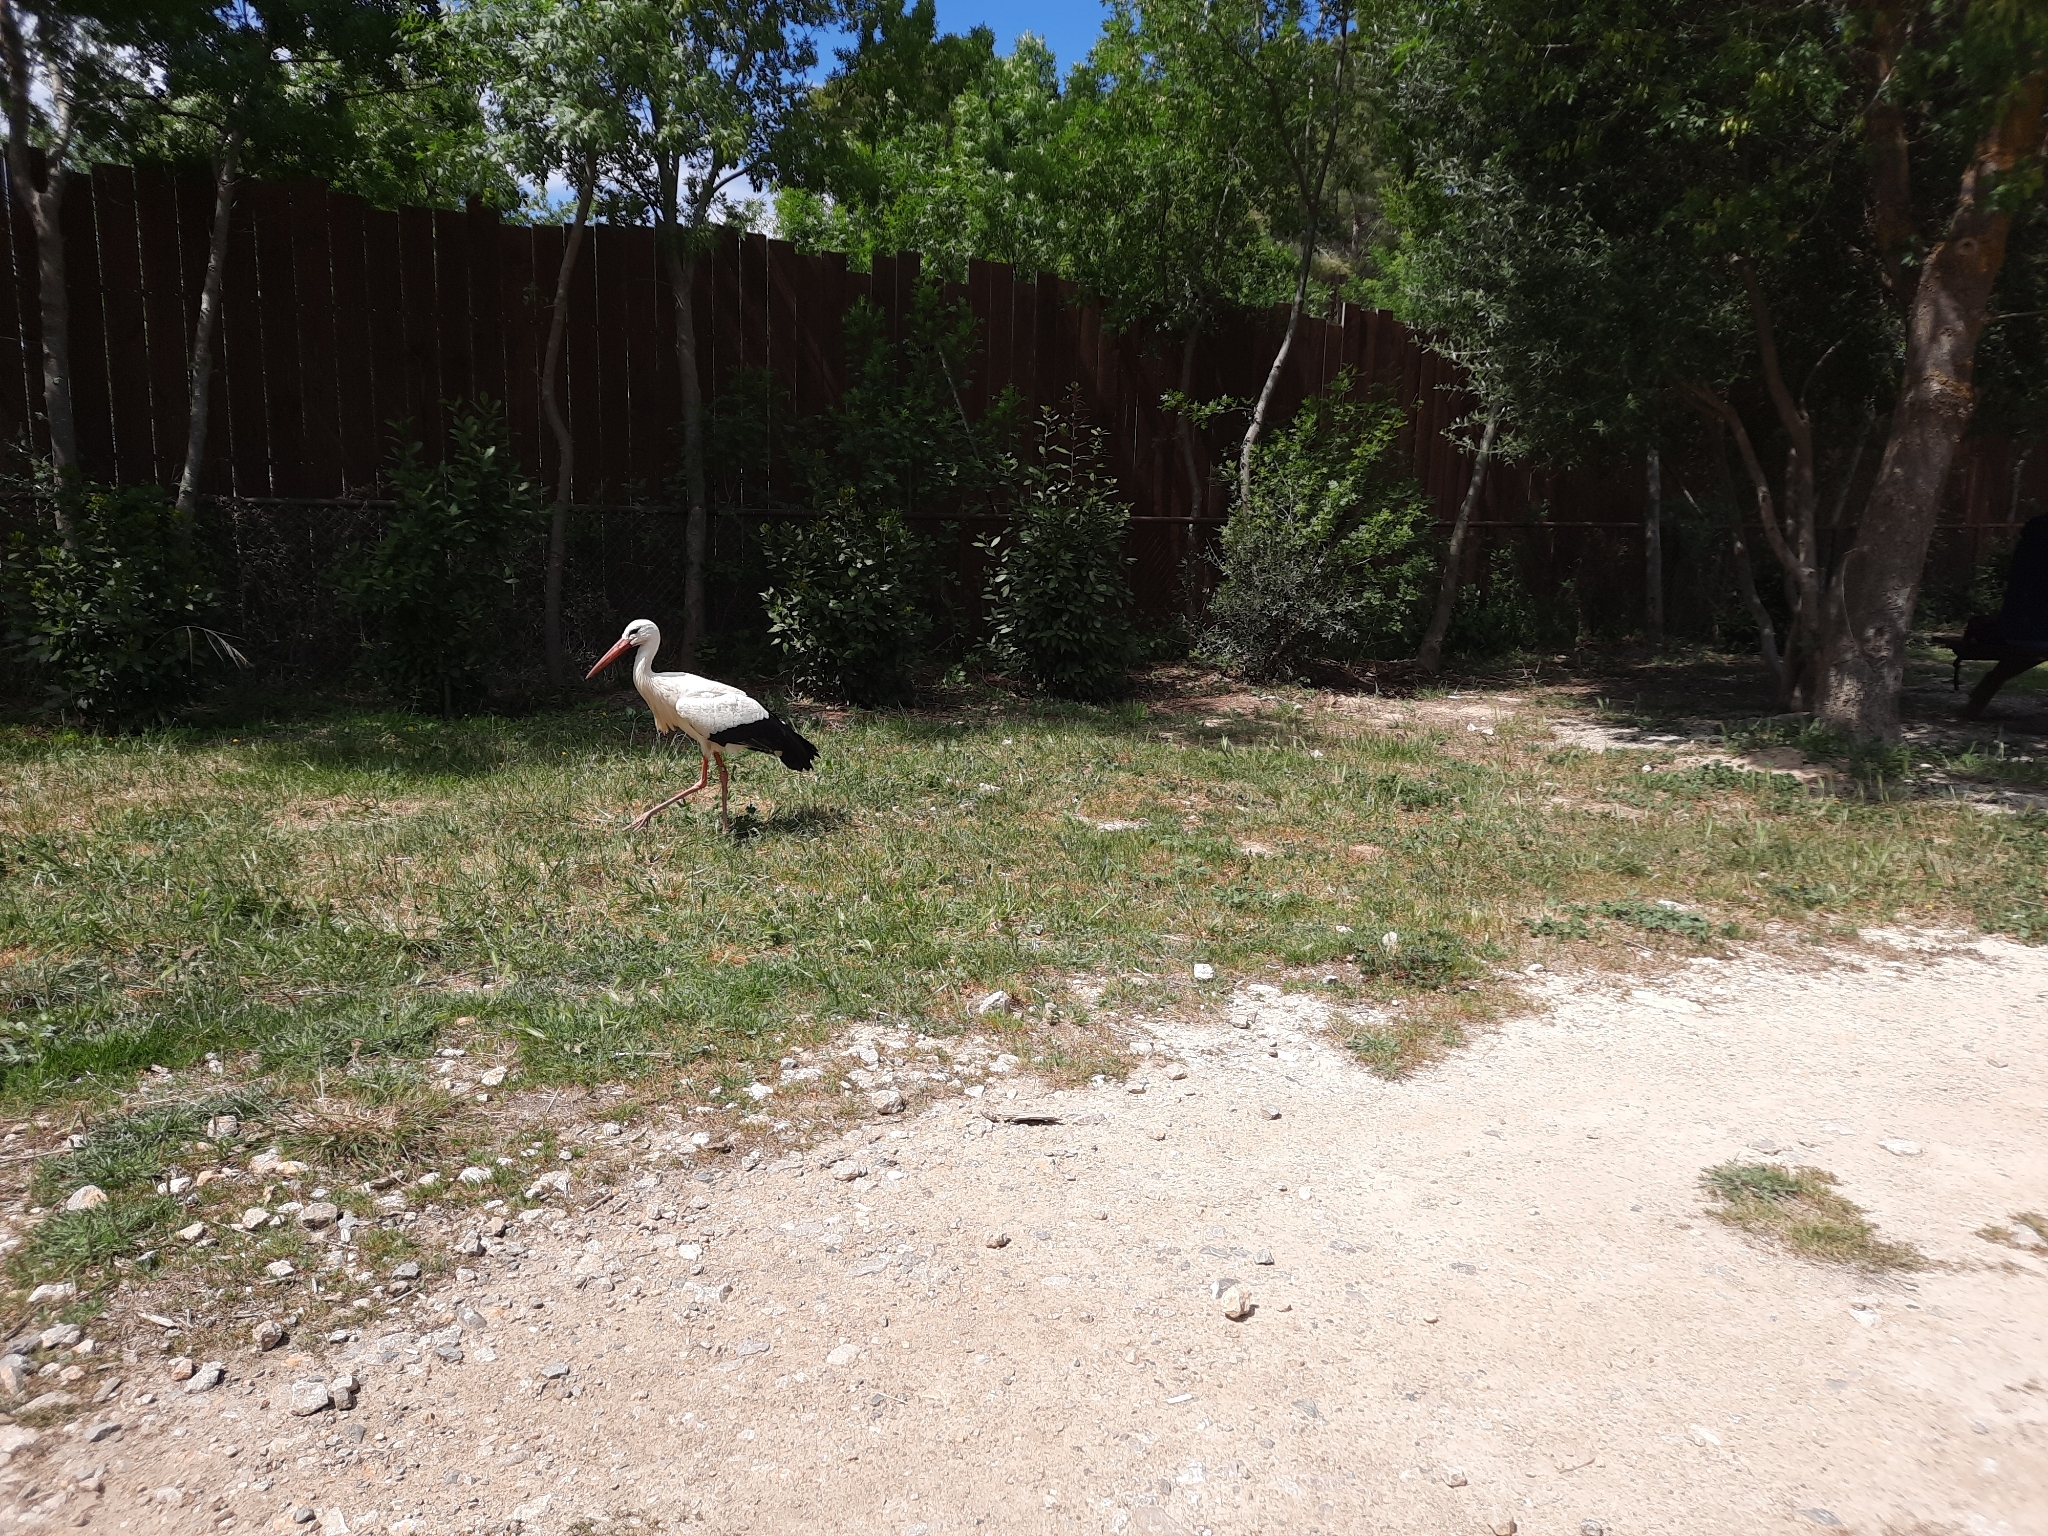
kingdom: Animalia
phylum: Chordata
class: Aves
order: Ciconiiformes
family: Ciconiidae
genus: Ciconia
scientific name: Ciconia ciconia
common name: White stork
